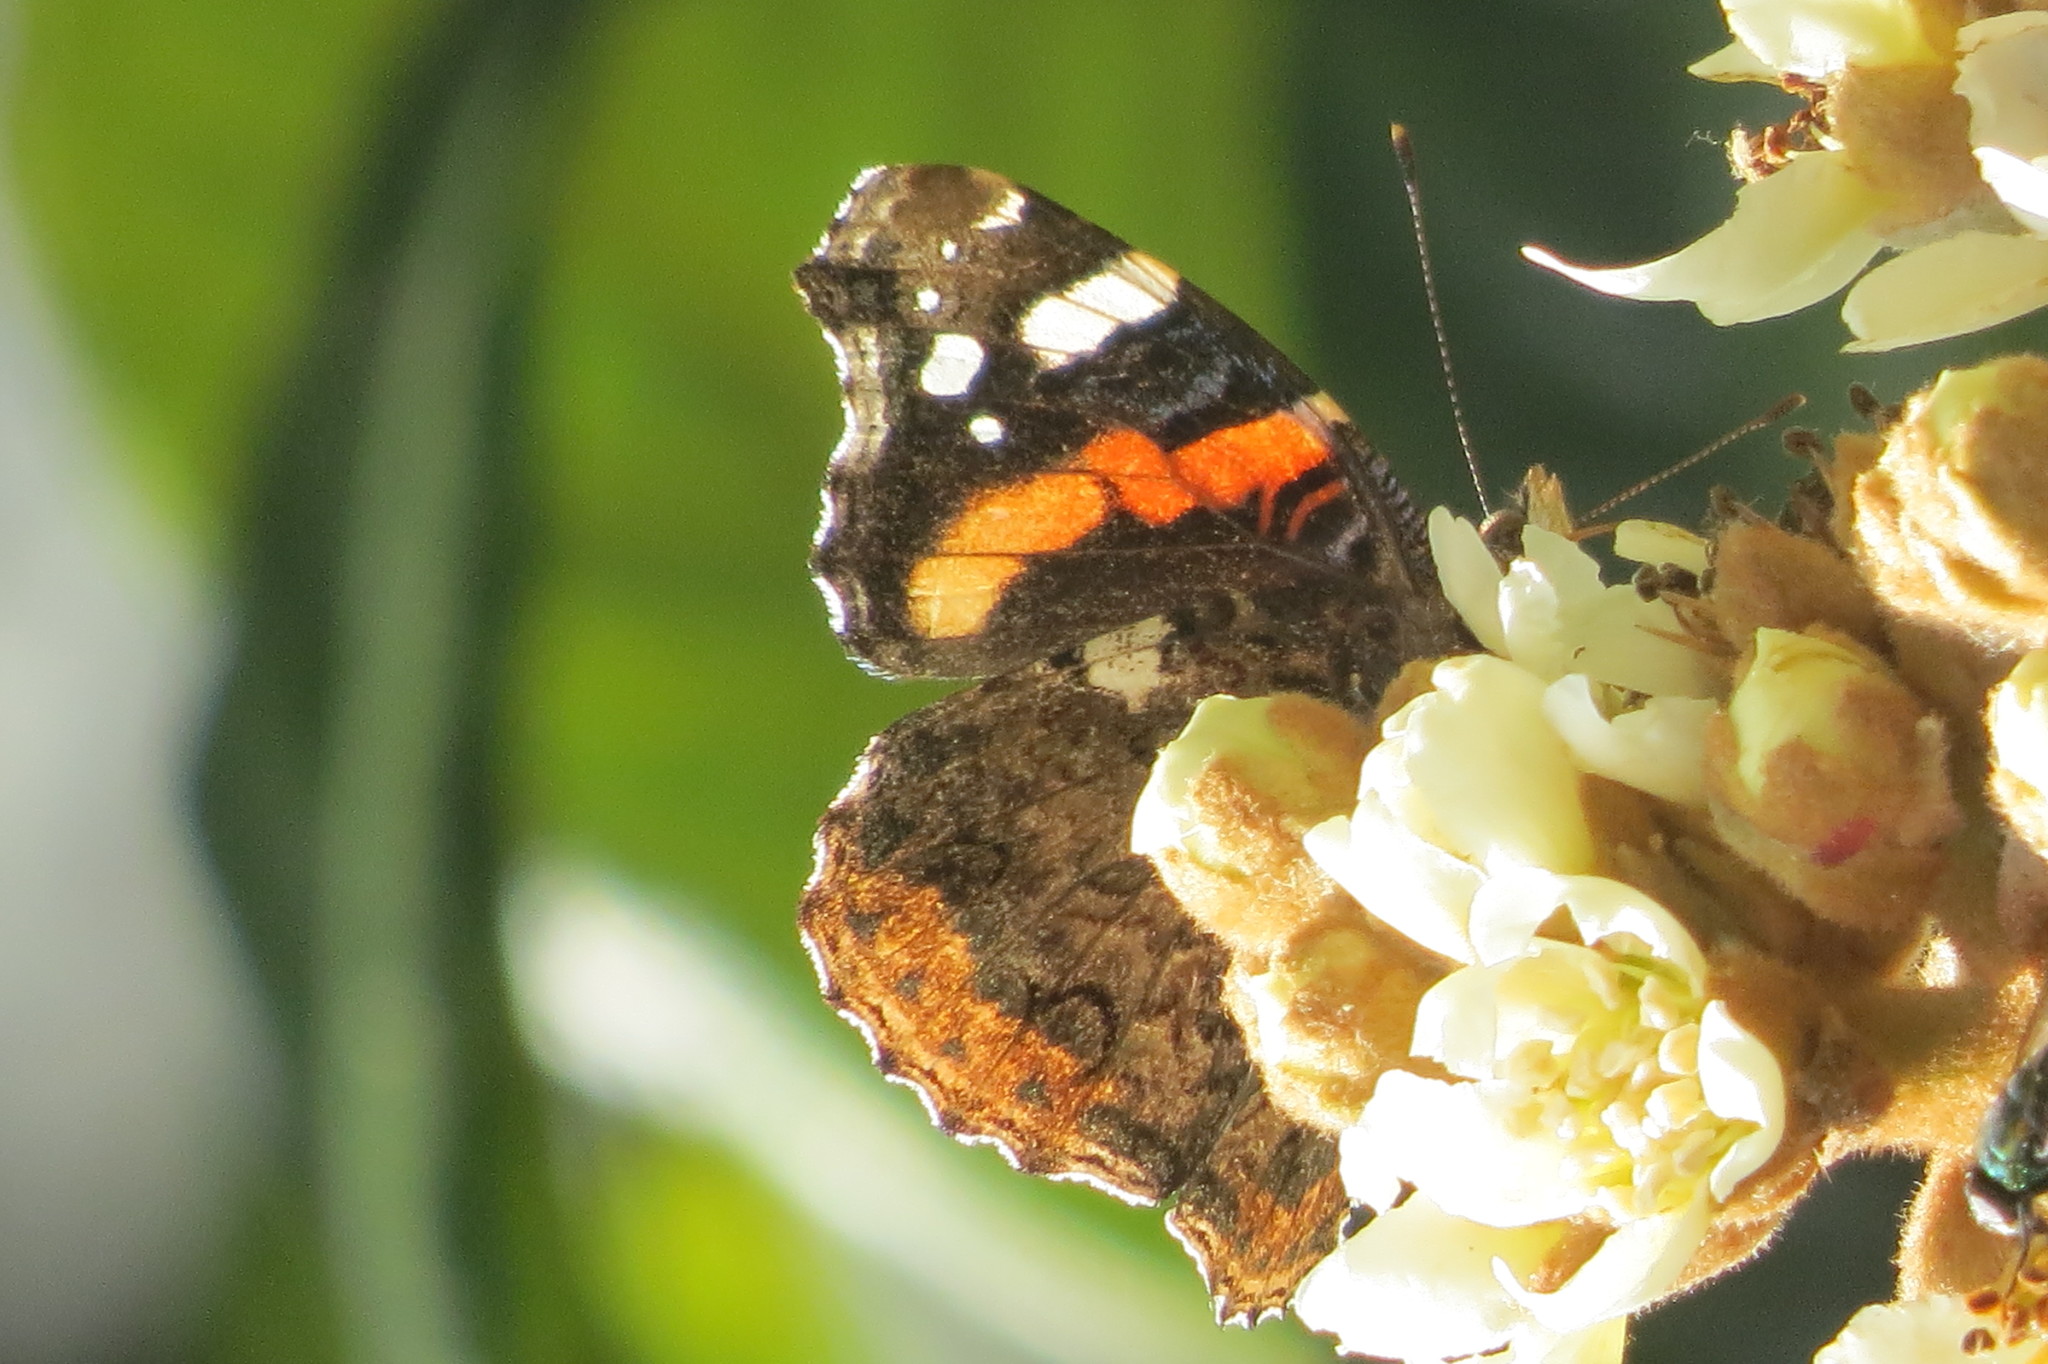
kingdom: Animalia
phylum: Arthropoda
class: Insecta
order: Lepidoptera
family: Nymphalidae
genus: Vanessa
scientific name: Vanessa atalanta
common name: Red admiral
